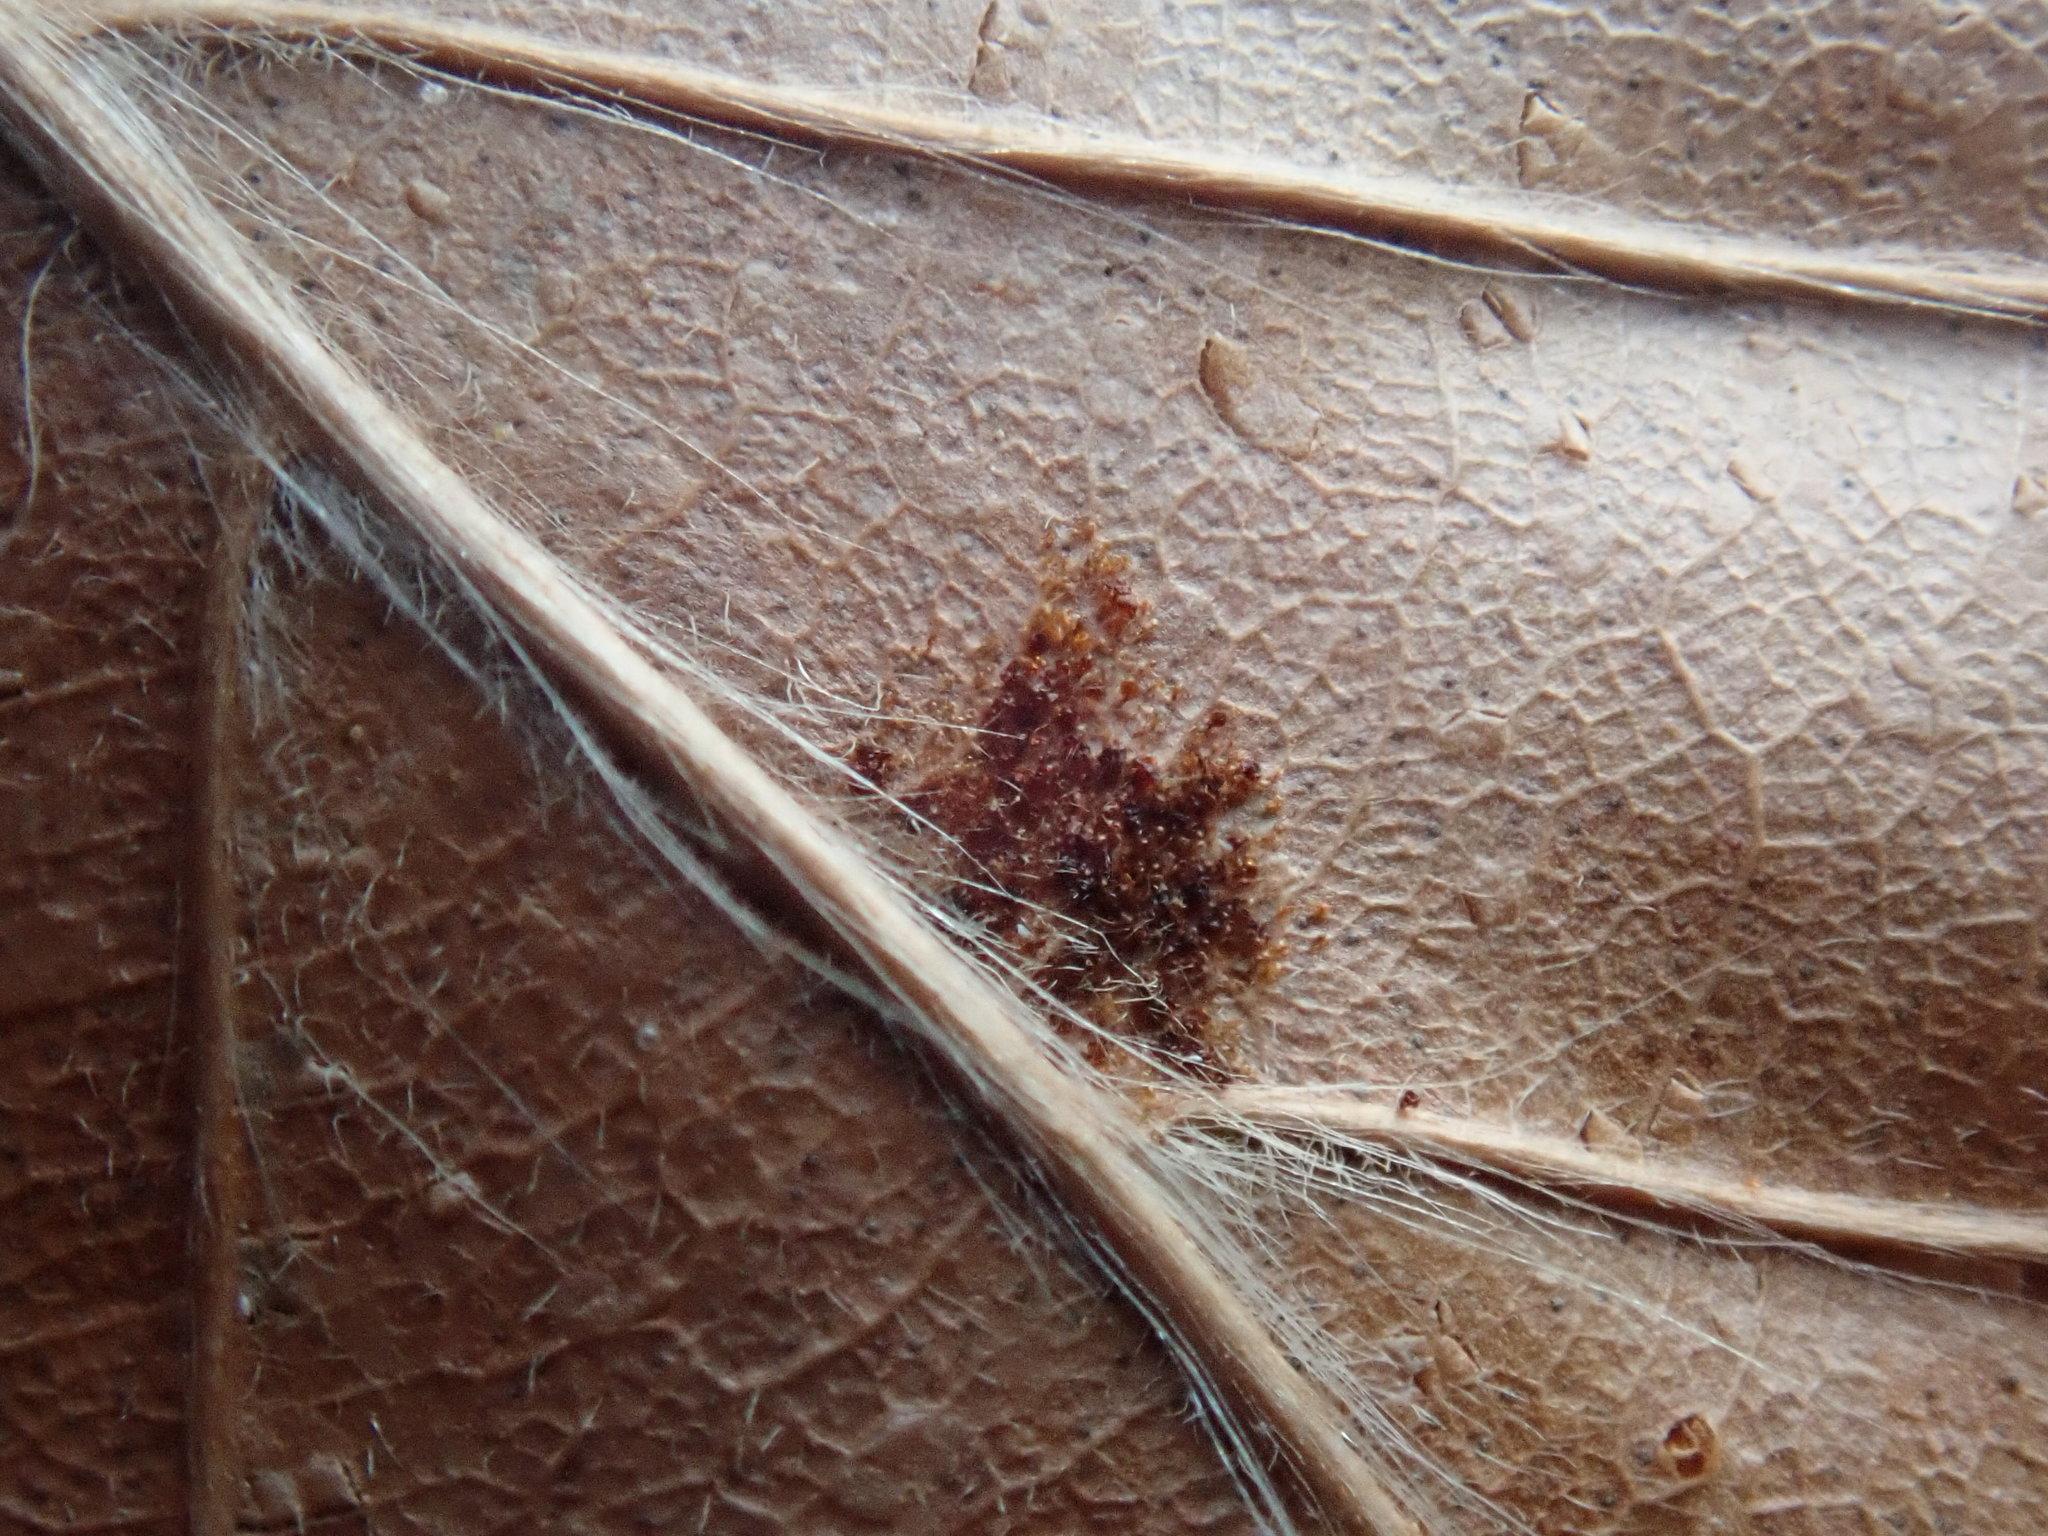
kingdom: Animalia
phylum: Arthropoda
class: Arachnida
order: Trombidiformes
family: Eriophyidae
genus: Acalitus
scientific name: Acalitus
